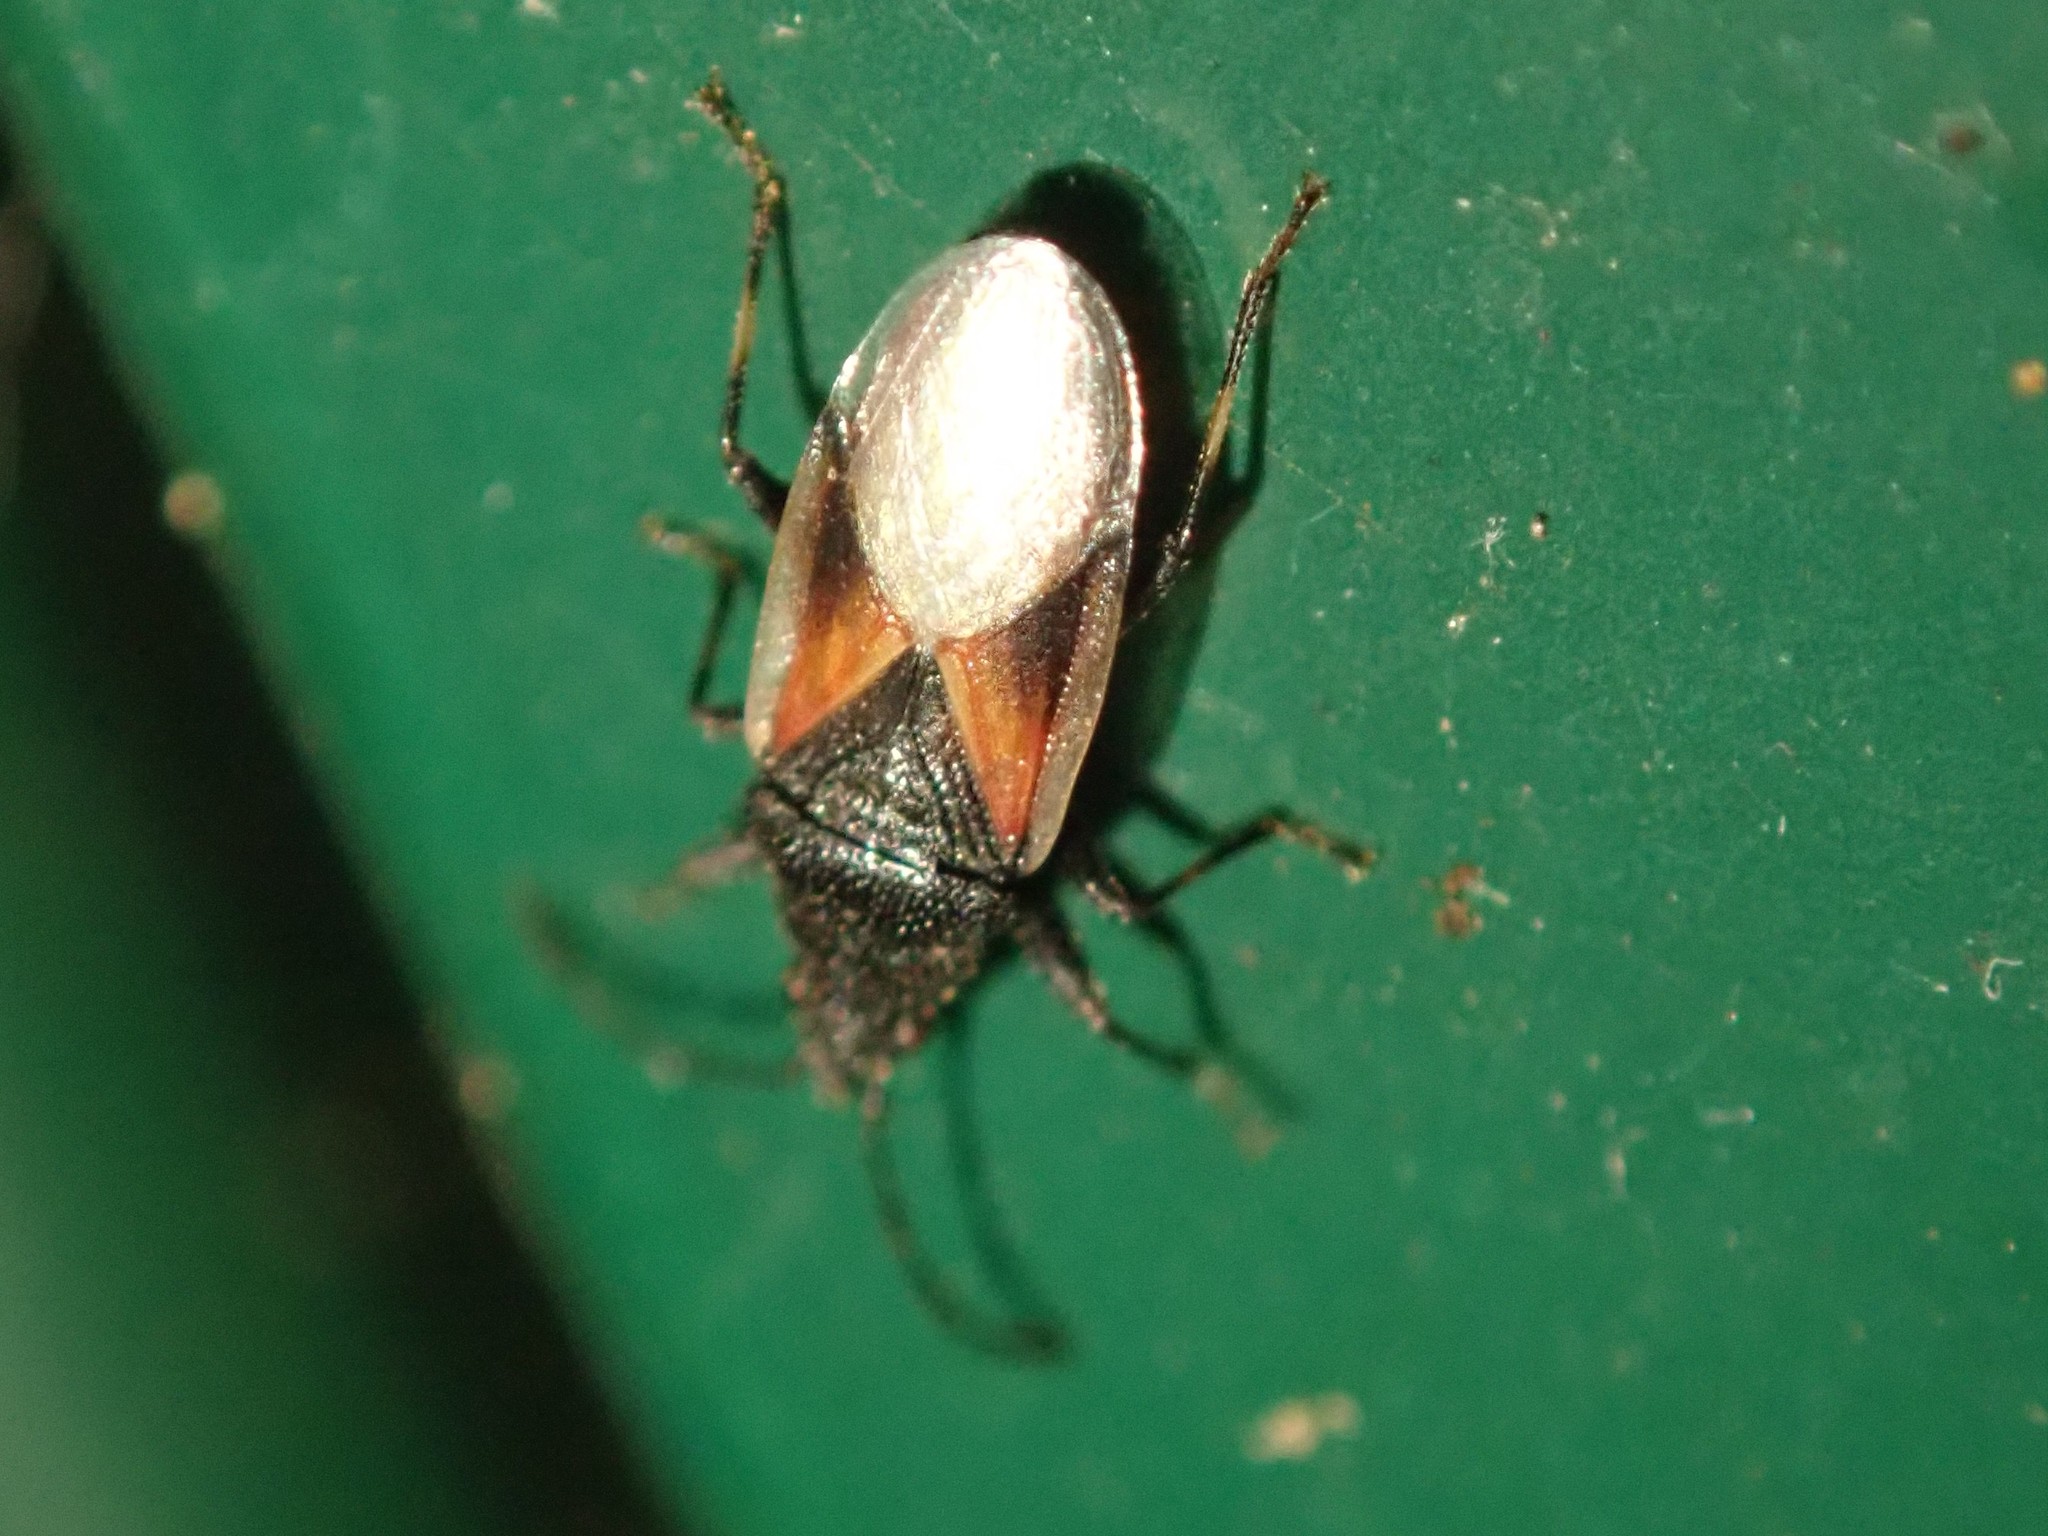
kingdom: Animalia
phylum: Arthropoda
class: Insecta
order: Hemiptera
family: Oxycarenidae
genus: Oxycarenus
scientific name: Oxycarenus lavaterae
